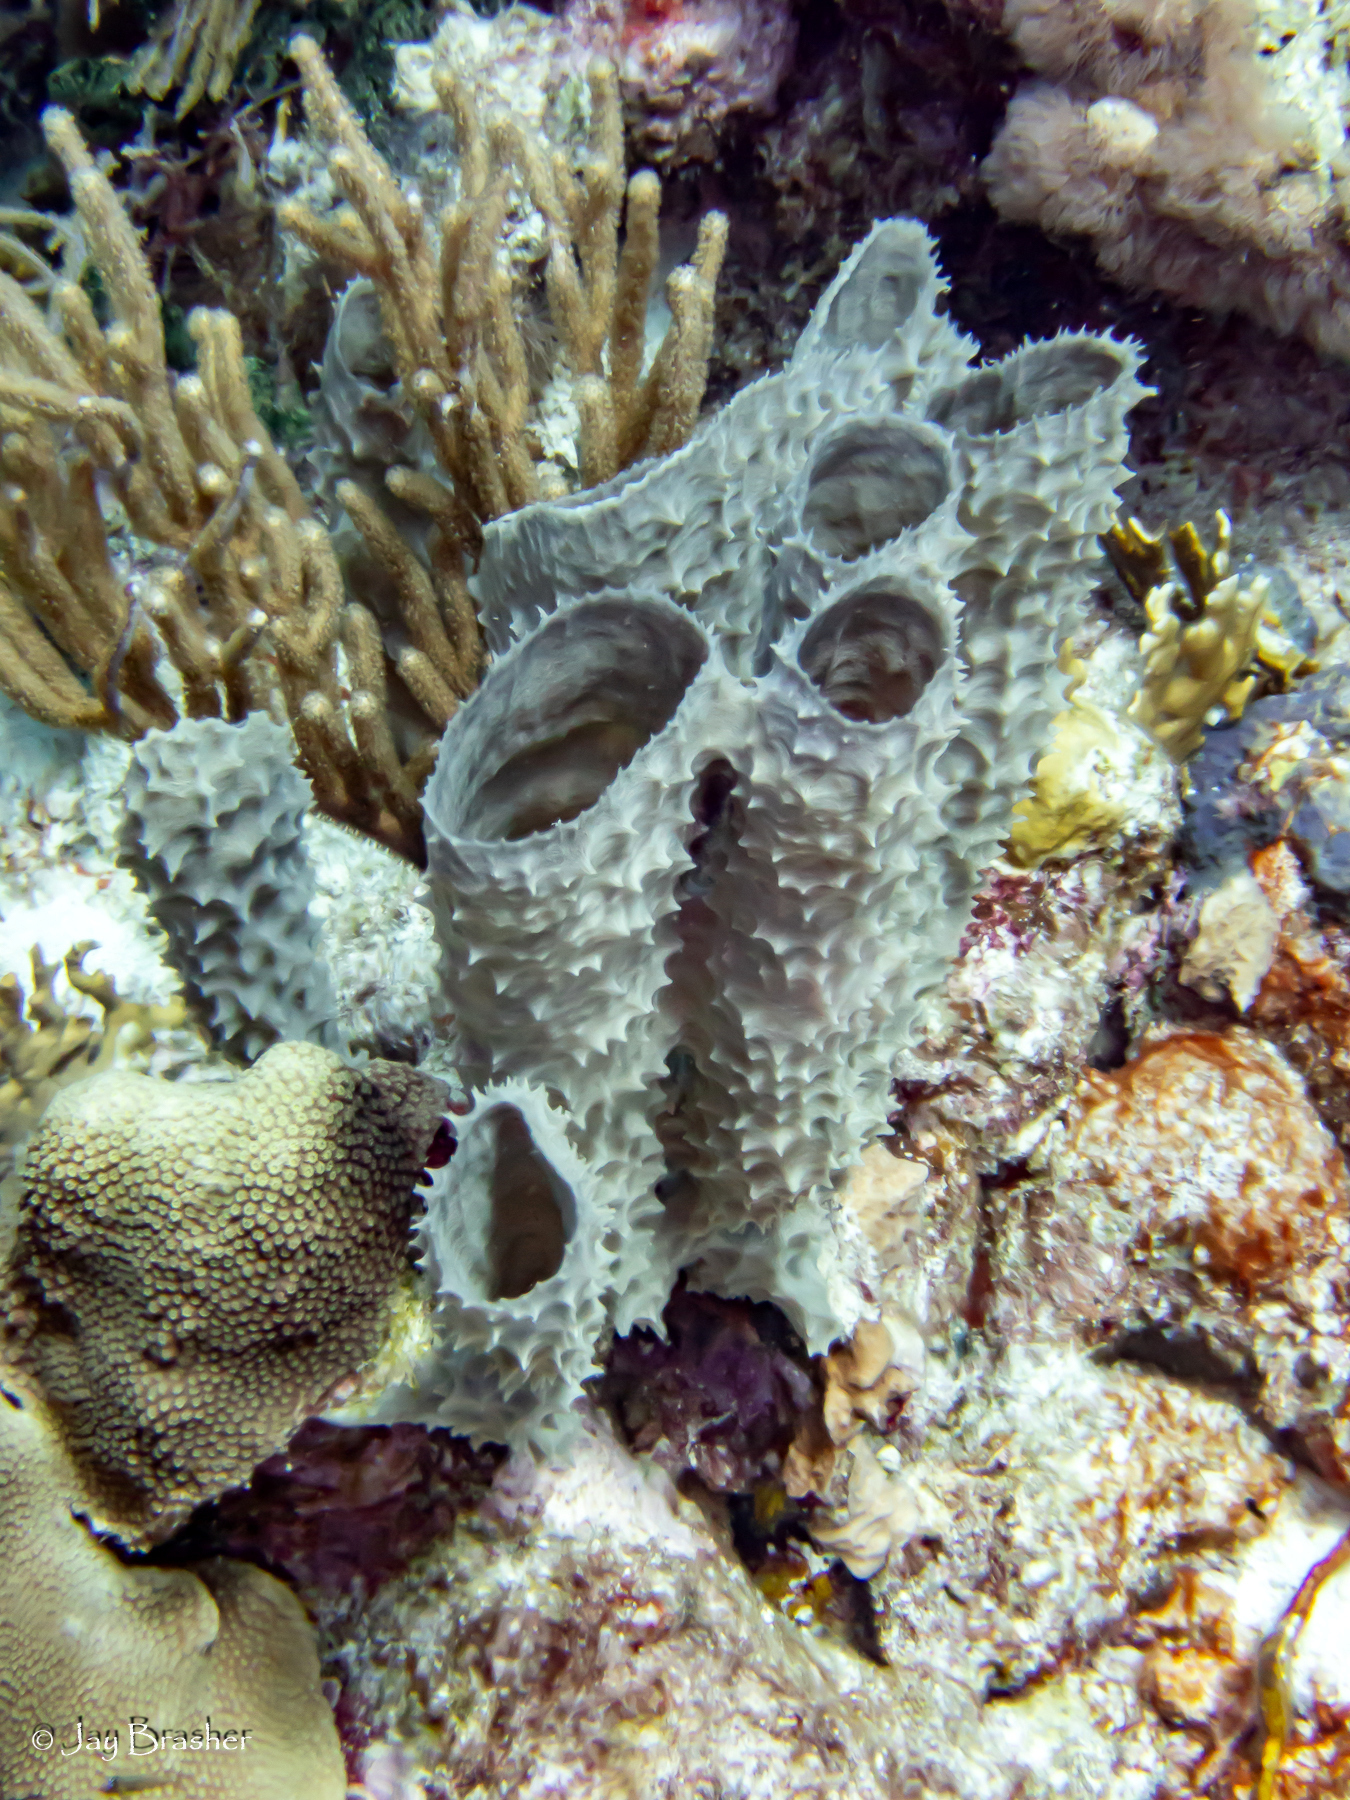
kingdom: Animalia
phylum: Porifera
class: Demospongiae
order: Haplosclerida
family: Callyspongiidae
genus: Callyspongia
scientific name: Callyspongia aculeata
